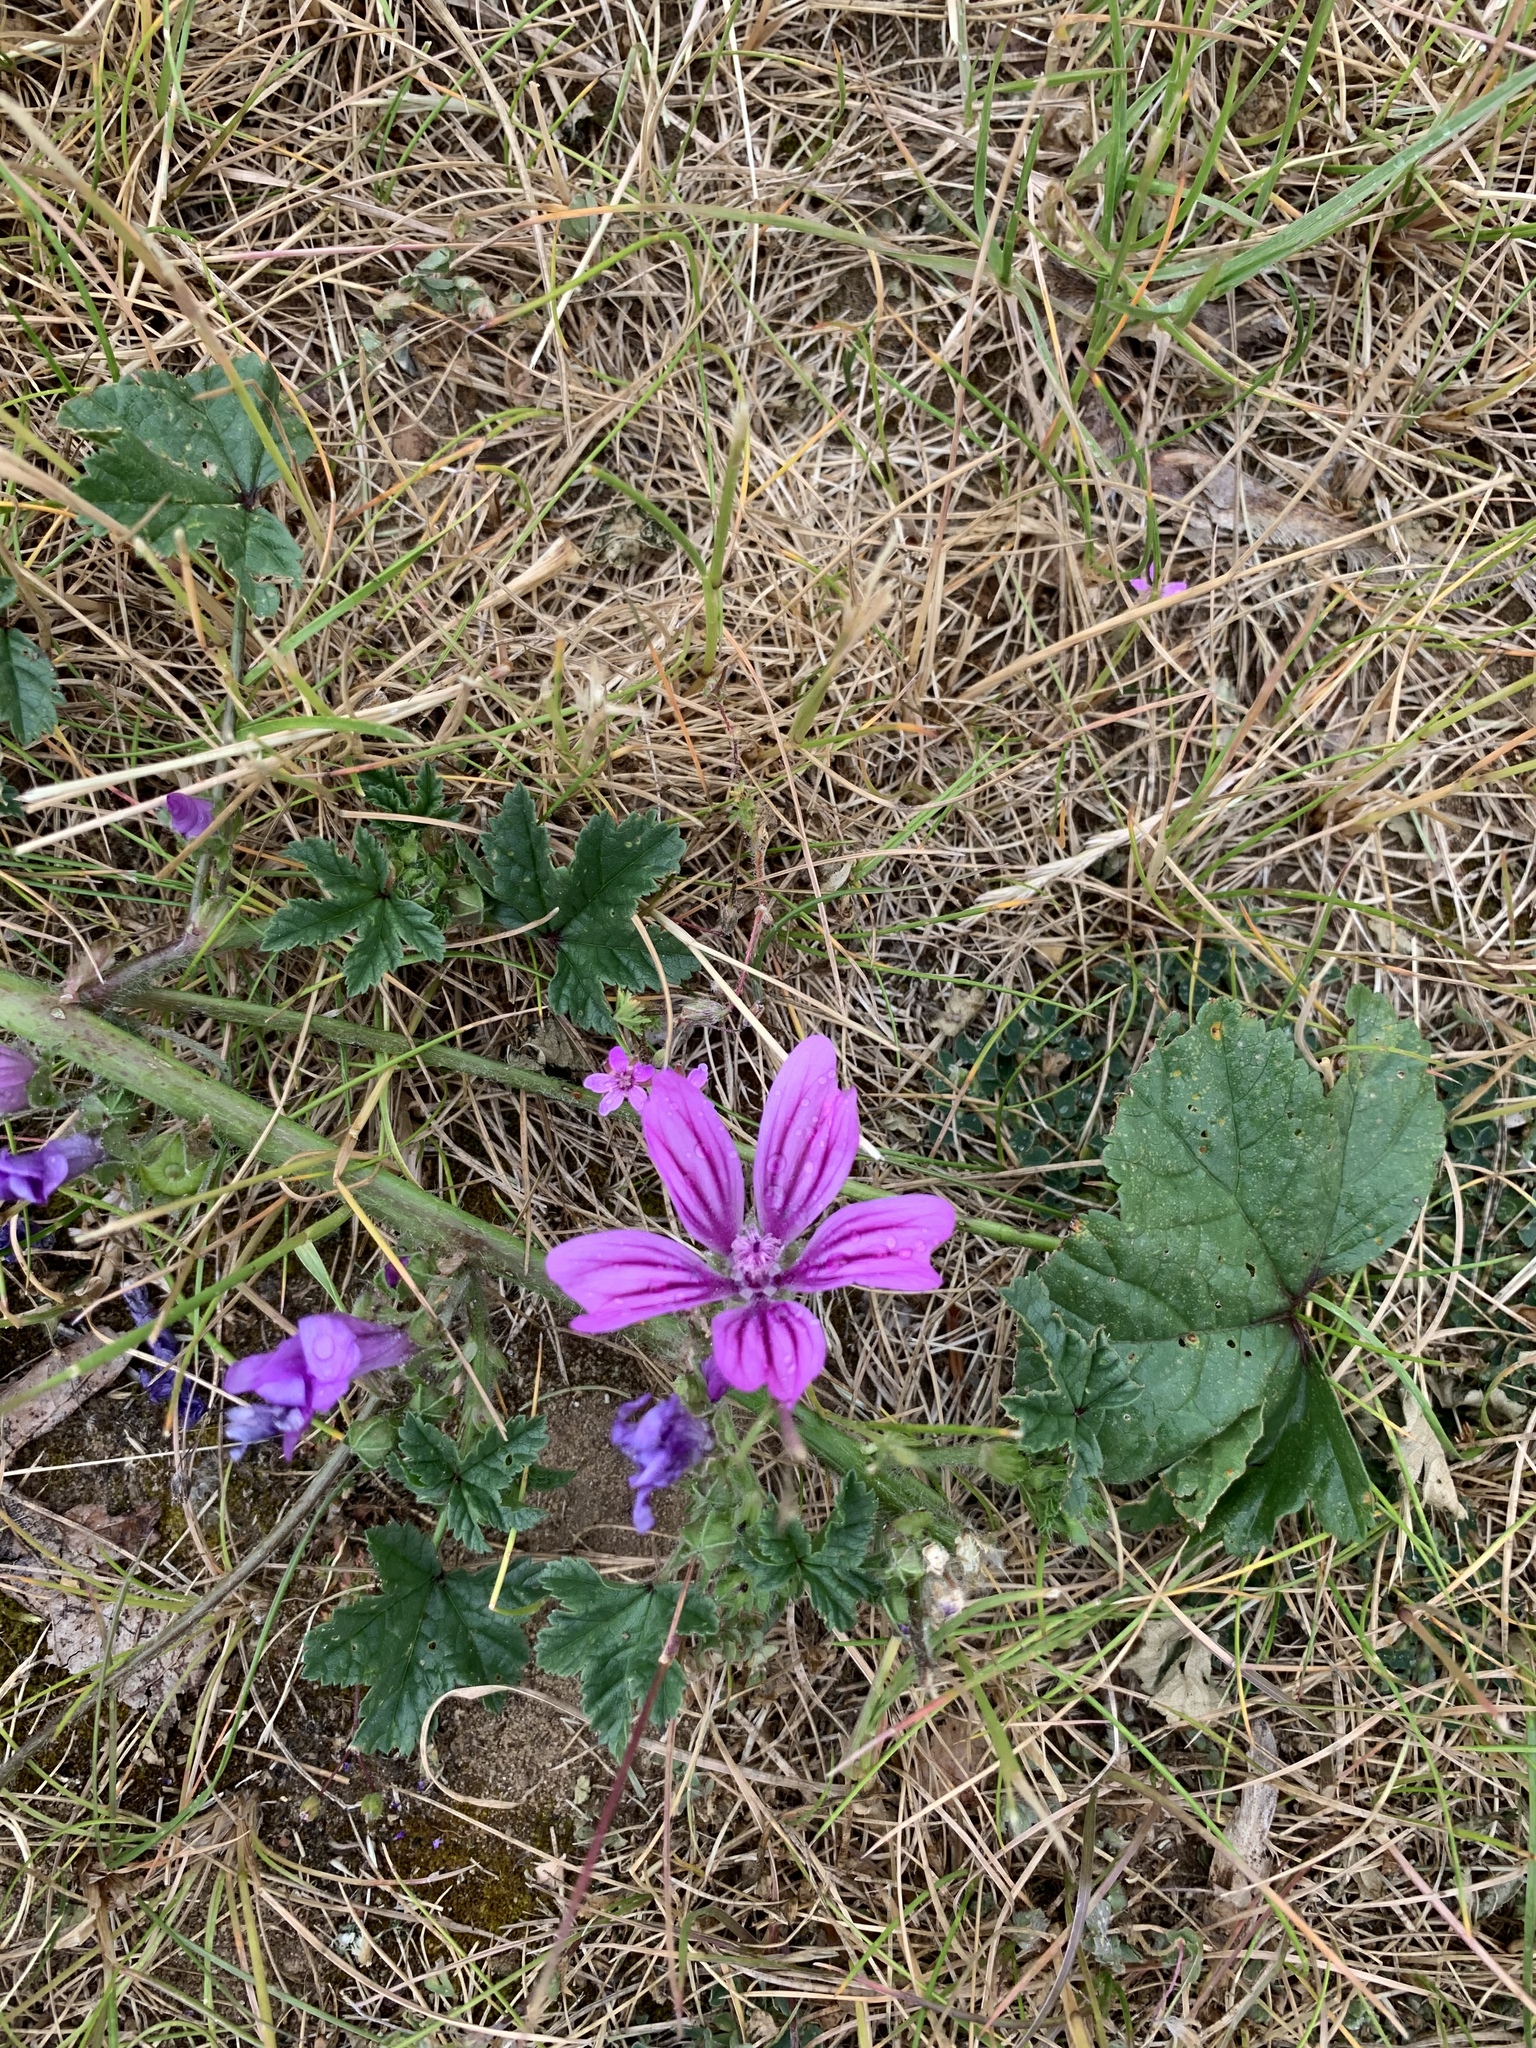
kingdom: Plantae
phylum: Tracheophyta
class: Magnoliopsida
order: Malvales
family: Malvaceae
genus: Malva
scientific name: Malva sylvestris
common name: Common mallow
